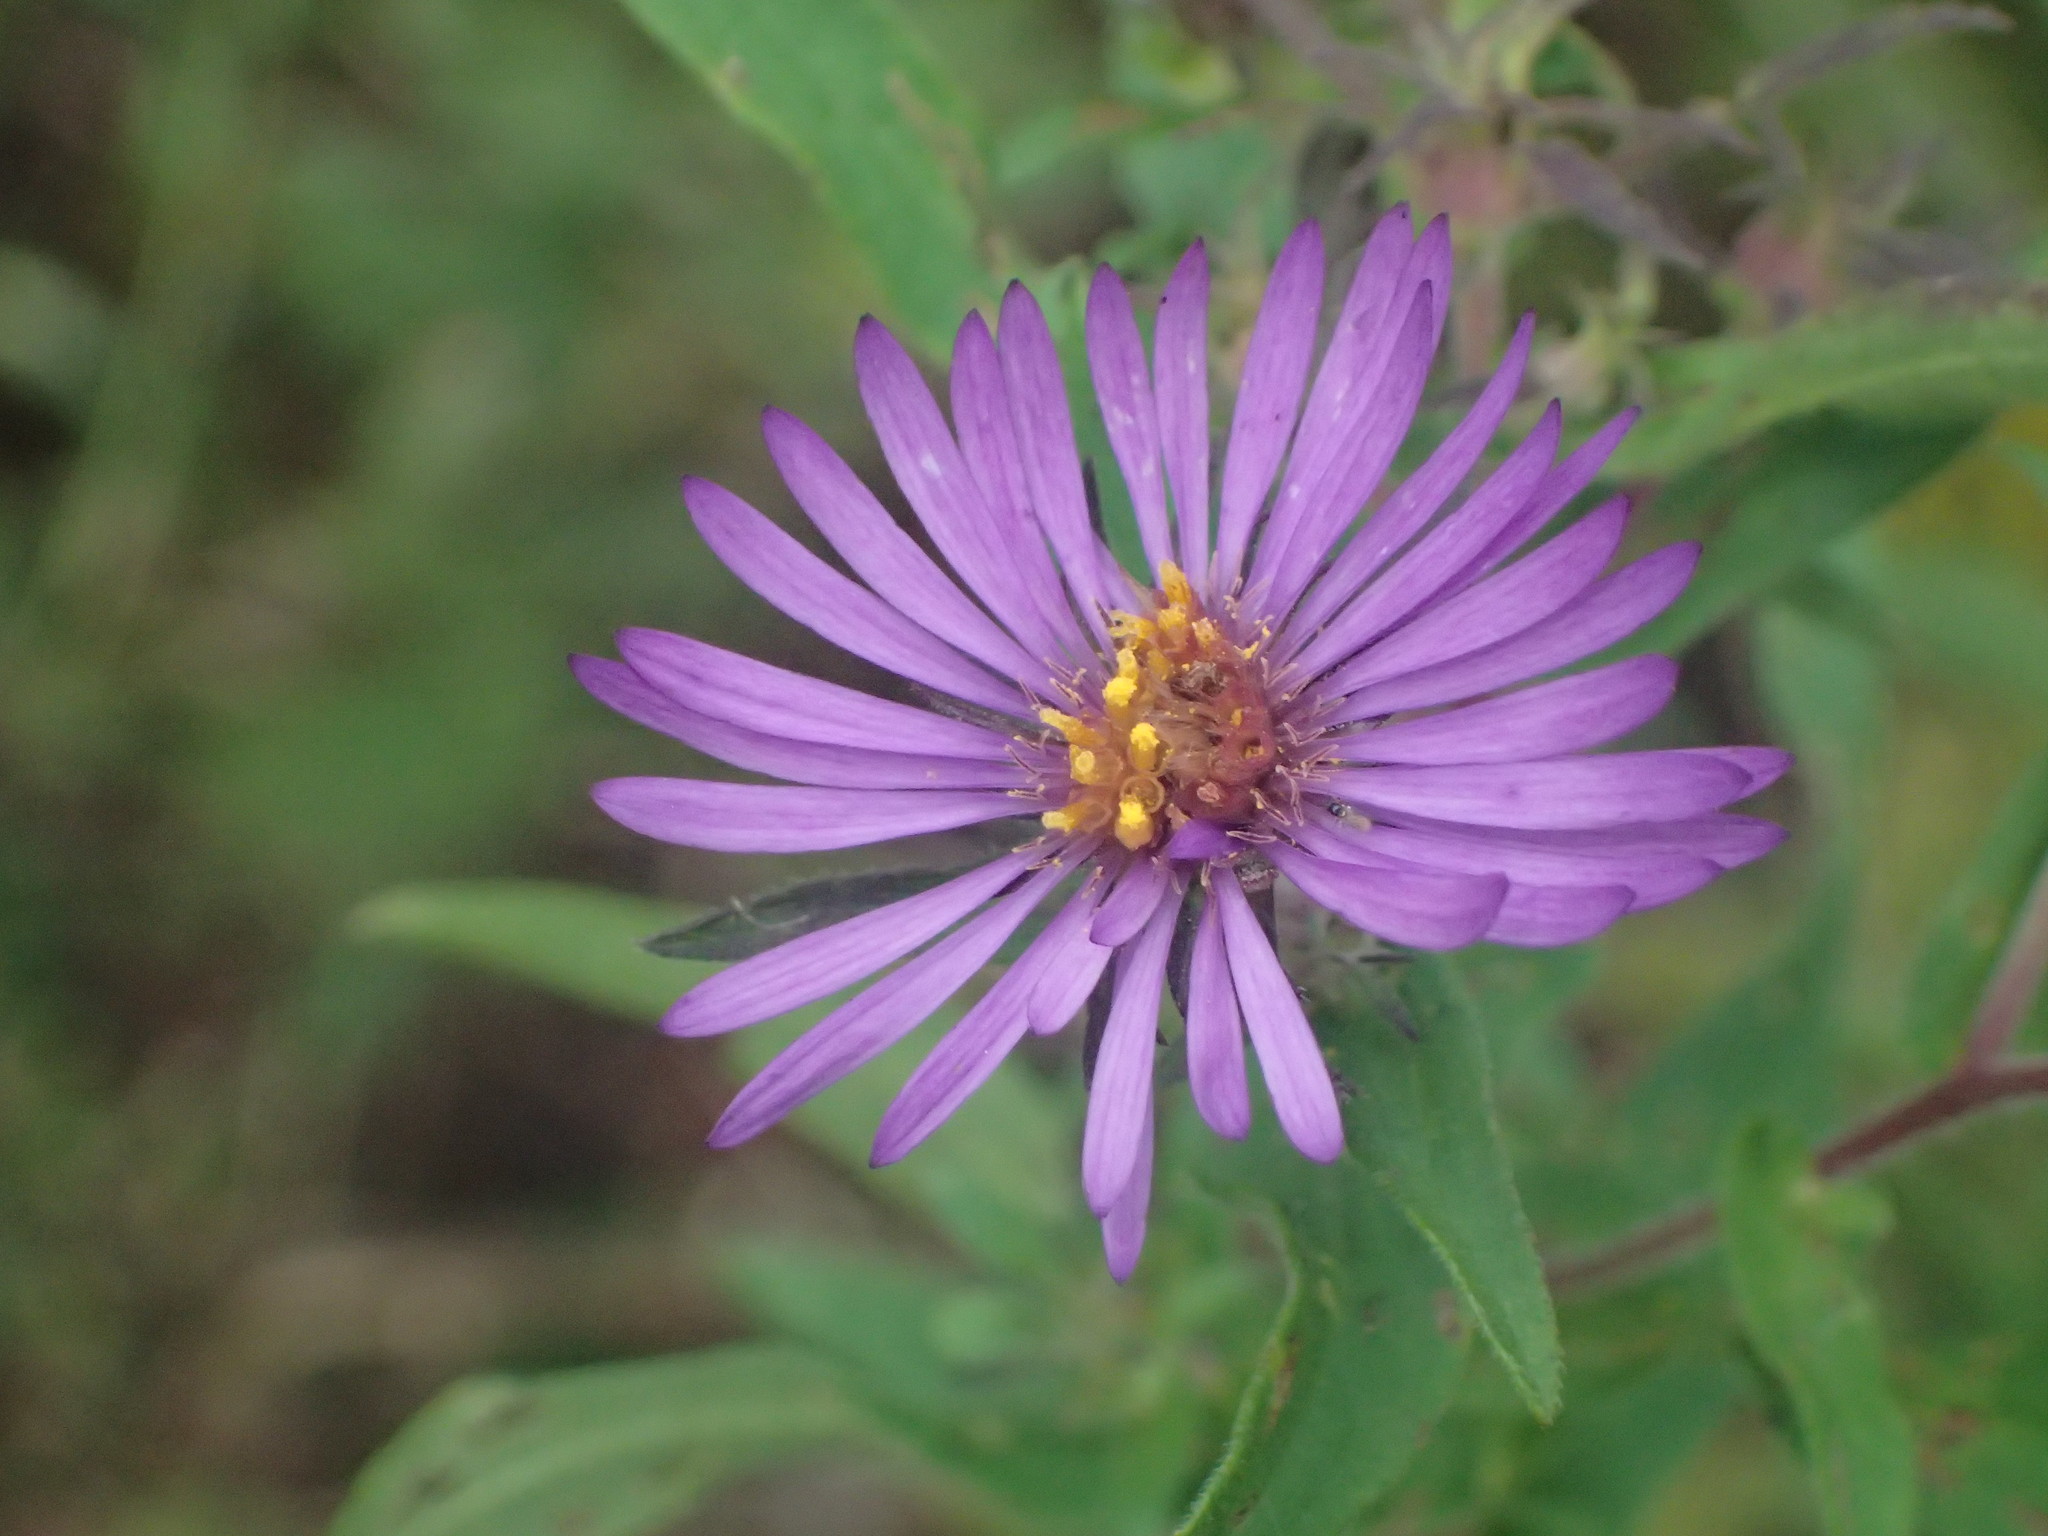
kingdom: Plantae
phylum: Tracheophyta
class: Magnoliopsida
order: Asterales
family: Asteraceae
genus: Symphyotrichum
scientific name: Symphyotrichum novae-angliae
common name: Michaelmas daisy
